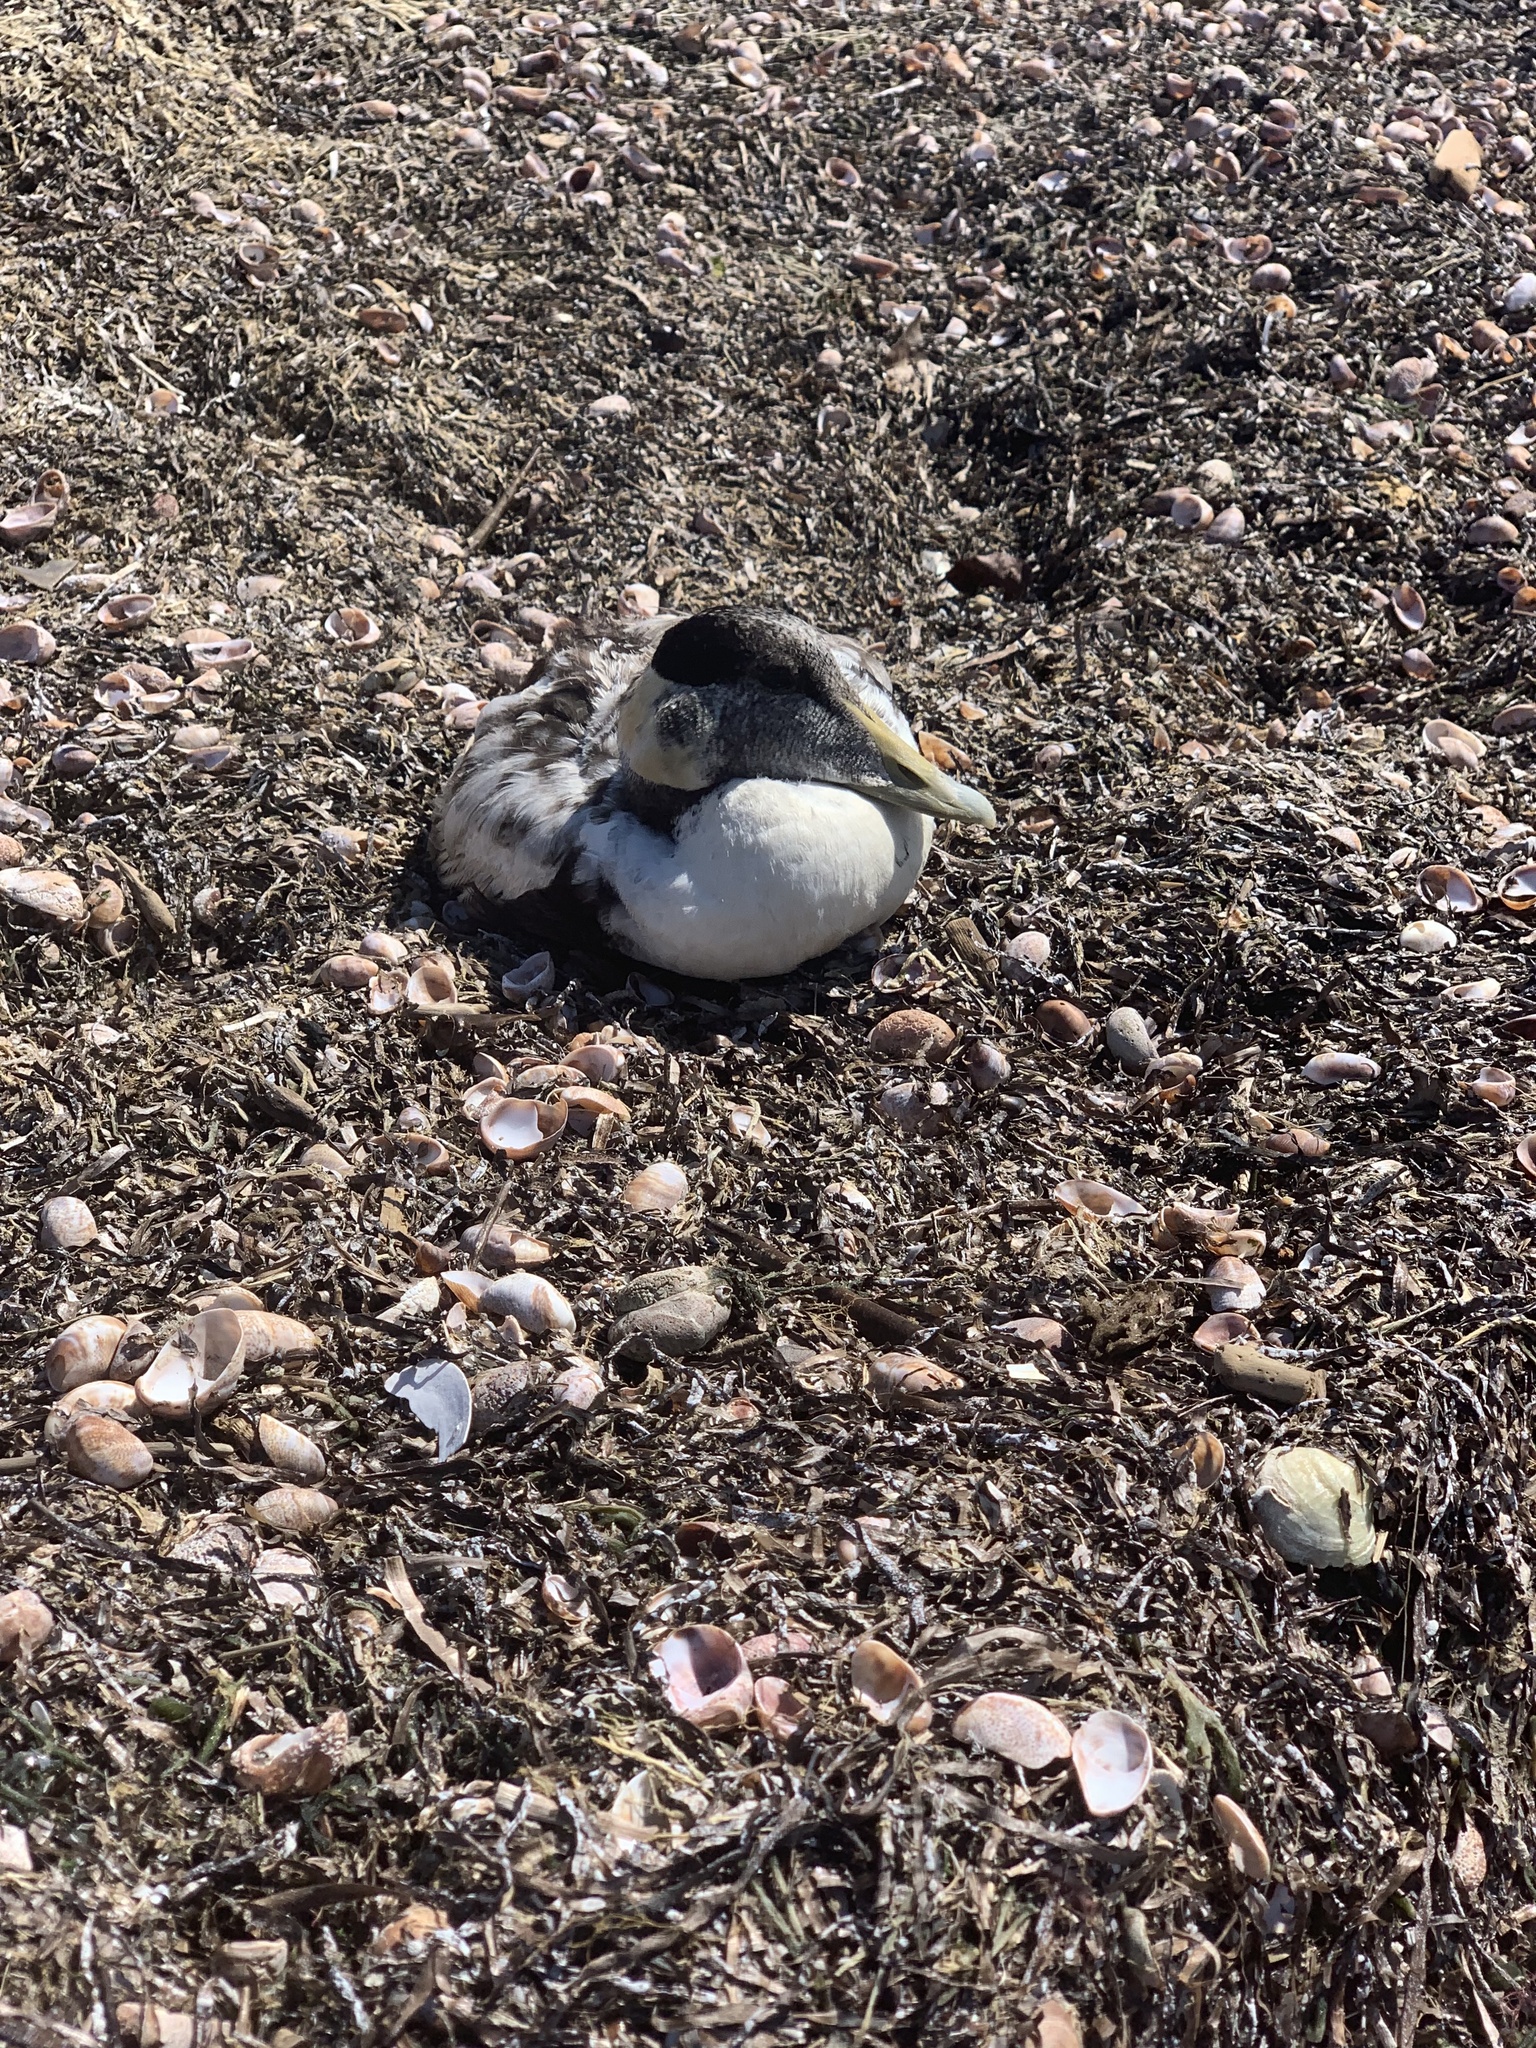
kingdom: Animalia
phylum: Chordata
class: Aves
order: Anseriformes
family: Anatidae
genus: Somateria
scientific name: Somateria mollissima
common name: Common eider
